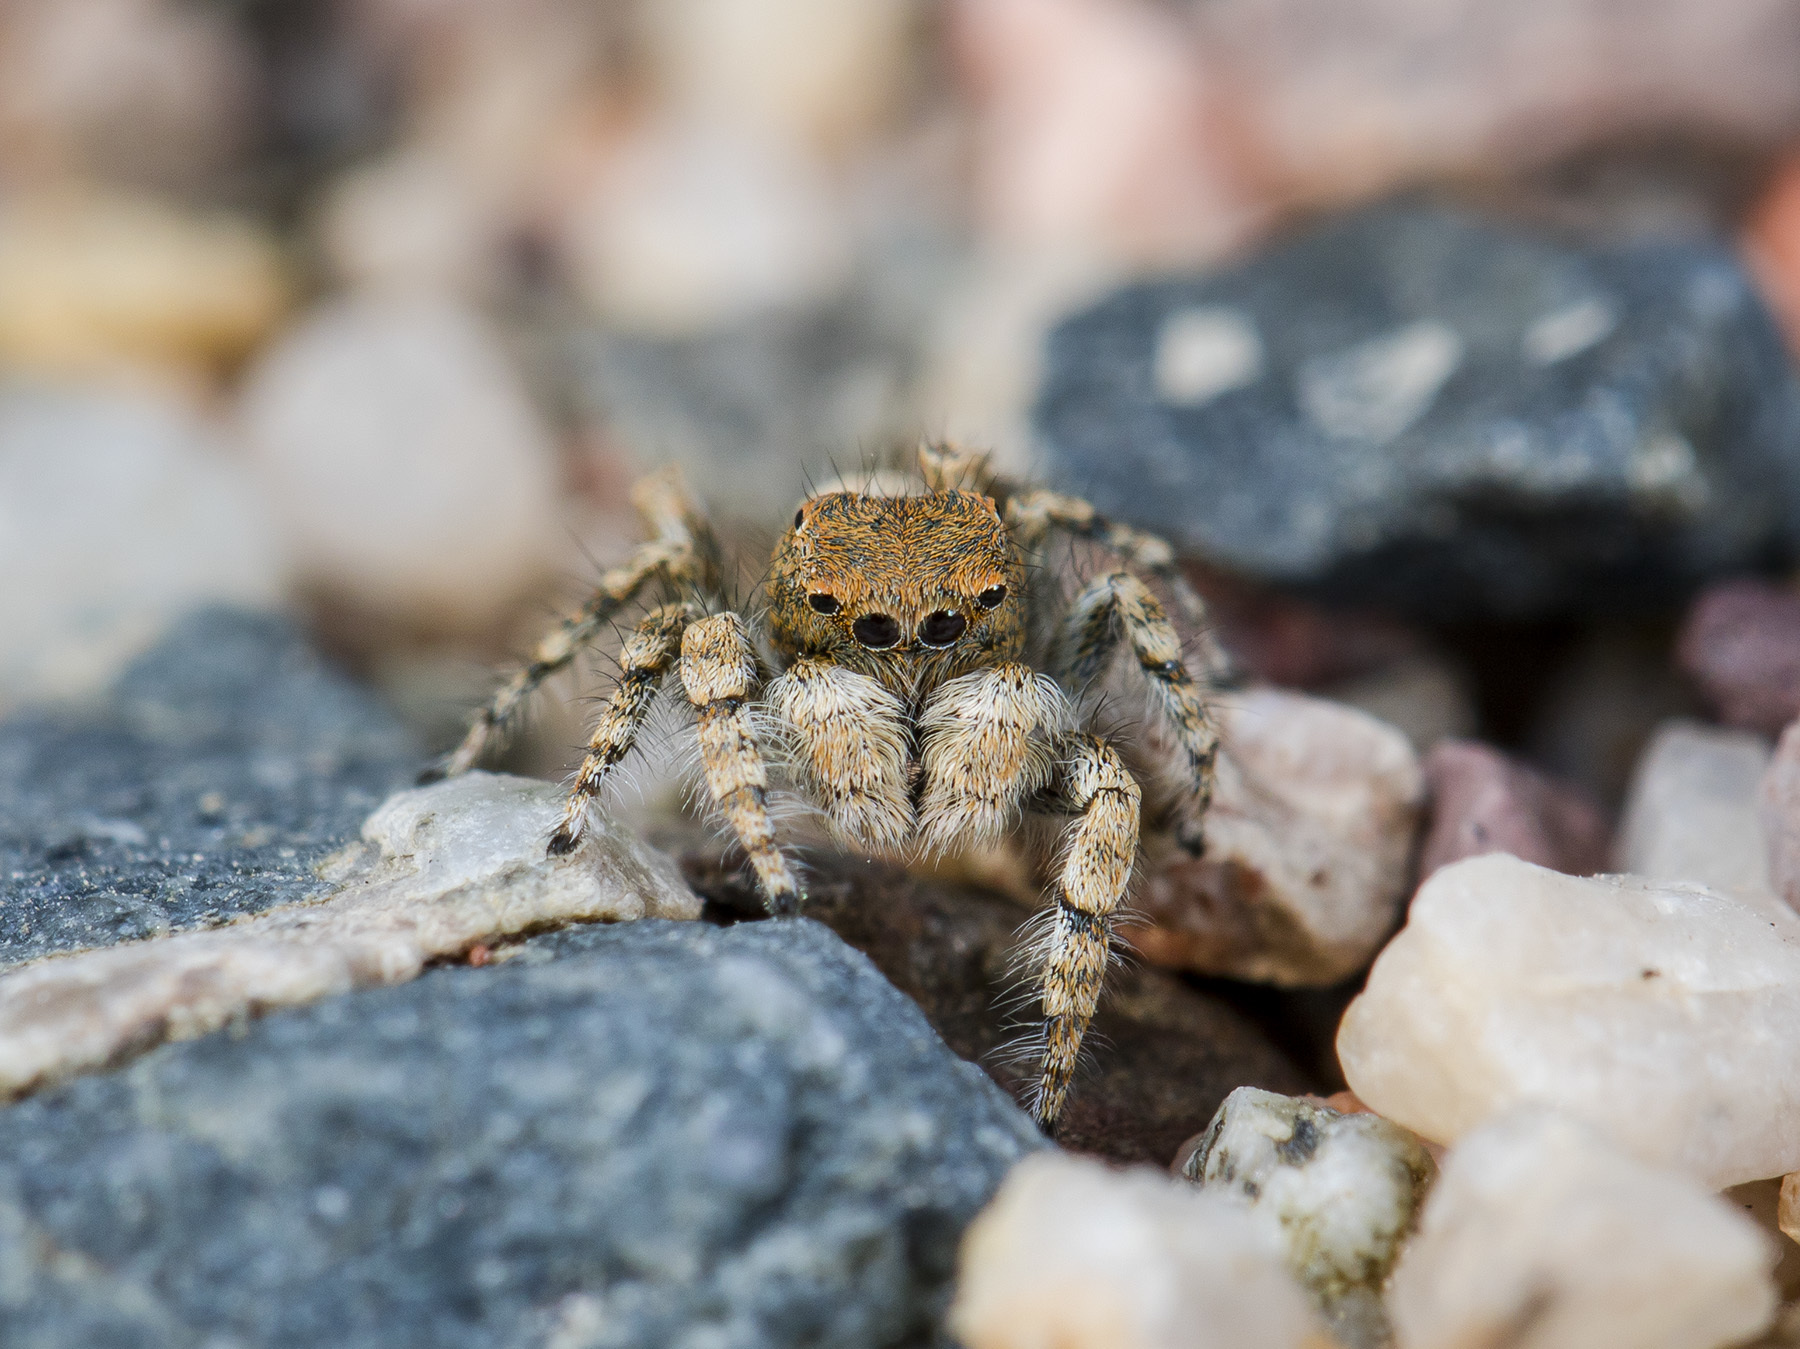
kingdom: Animalia
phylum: Arthropoda
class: Arachnida
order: Araneae
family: Salticidae
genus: Yllenus
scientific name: Yllenus zyuzini
